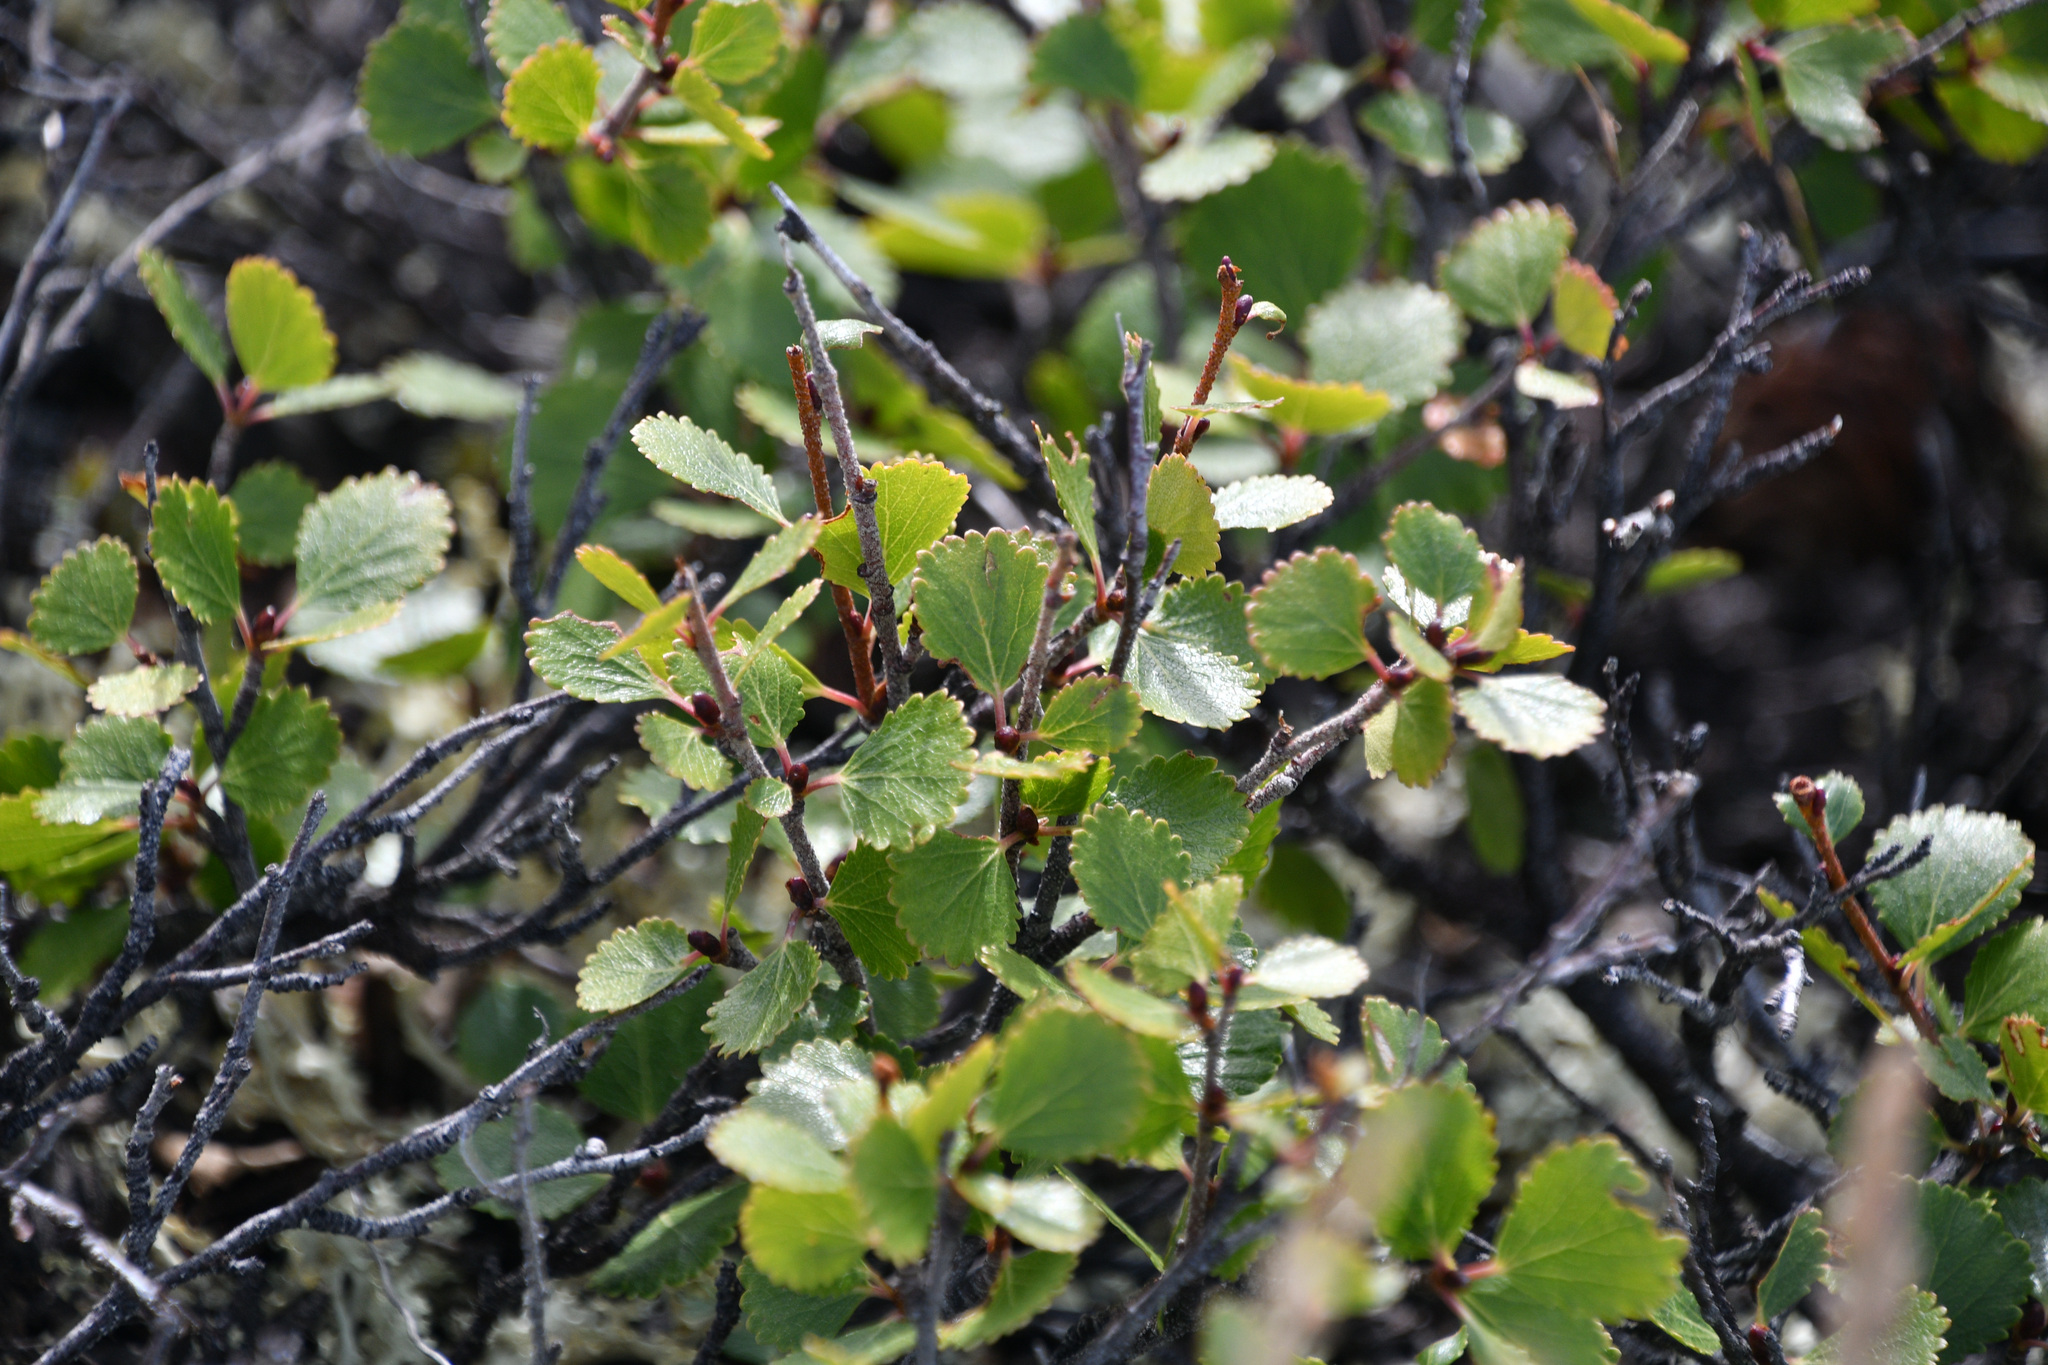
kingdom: Plantae
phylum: Tracheophyta
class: Magnoliopsida
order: Fagales
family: Betulaceae
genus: Betula
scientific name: Betula glandulosa
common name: Dwarf birch
